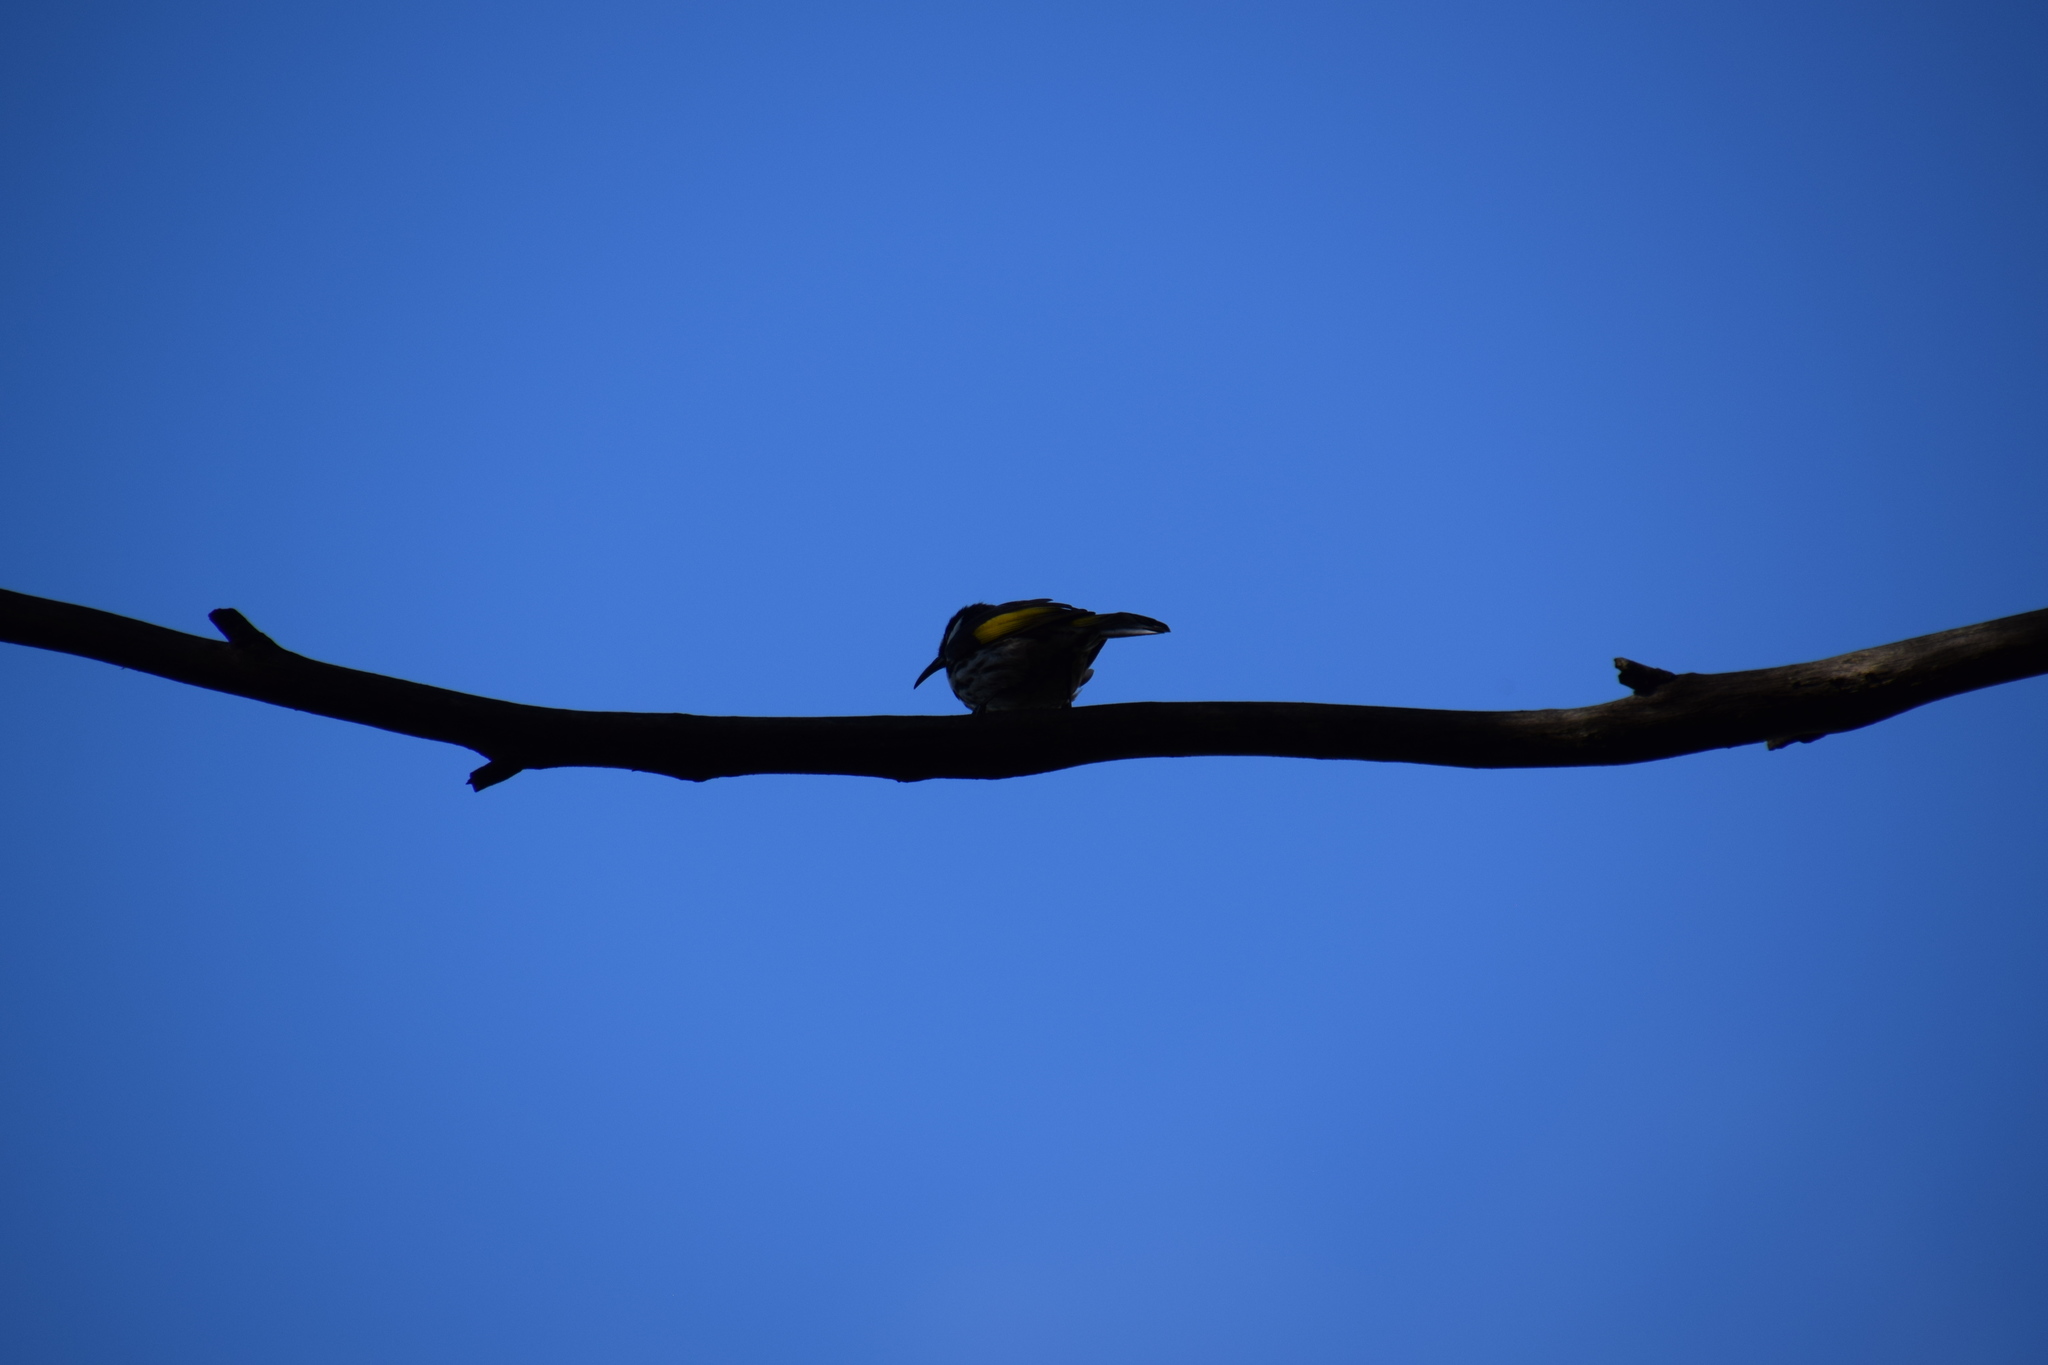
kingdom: Animalia
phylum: Chordata
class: Aves
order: Passeriformes
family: Meliphagidae
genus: Phylidonyris
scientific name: Phylidonyris novaehollandiae
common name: New holland honeyeater
